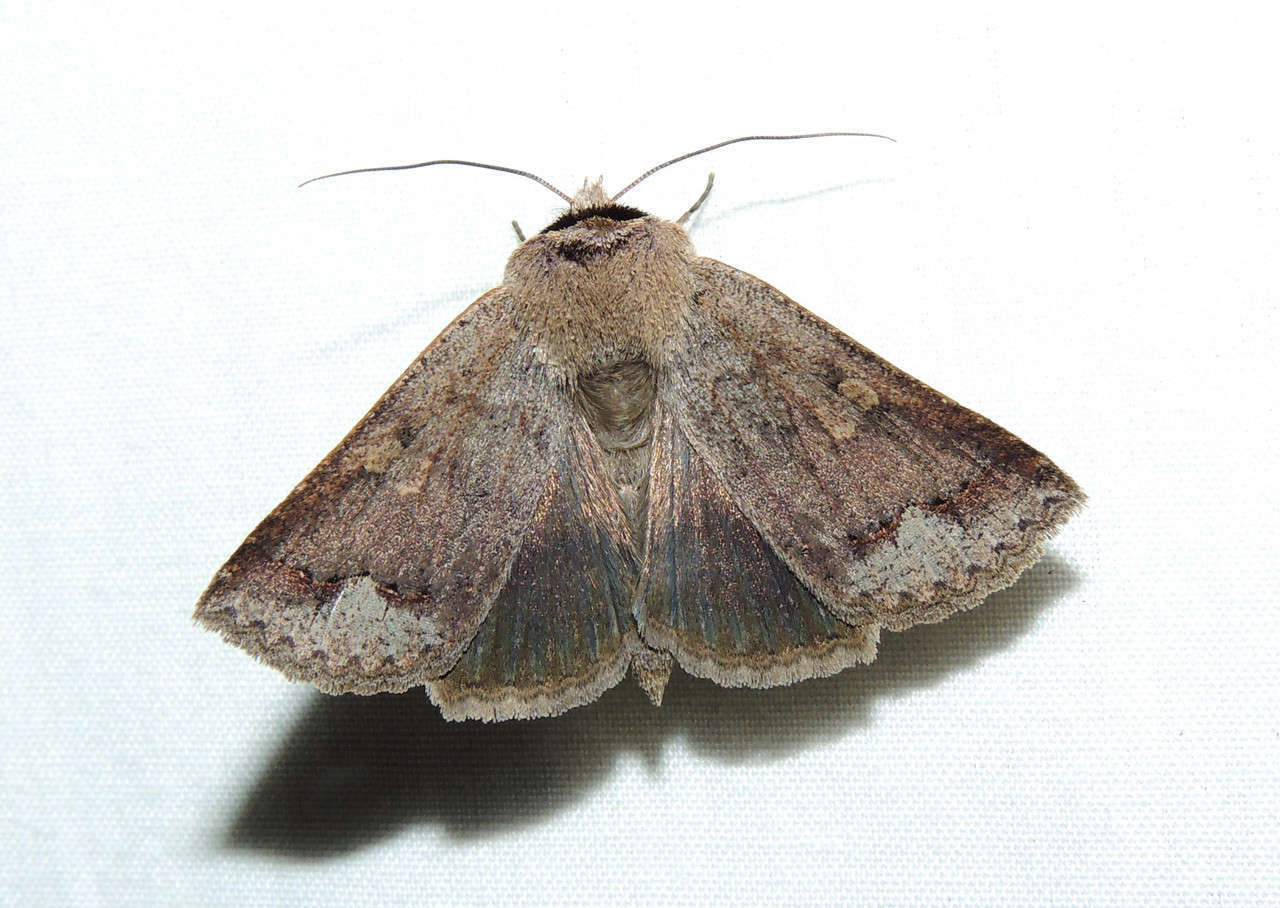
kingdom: Animalia
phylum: Arthropoda
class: Insecta
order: Lepidoptera
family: Erebidae
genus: Pantydia
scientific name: Pantydia diemeni
